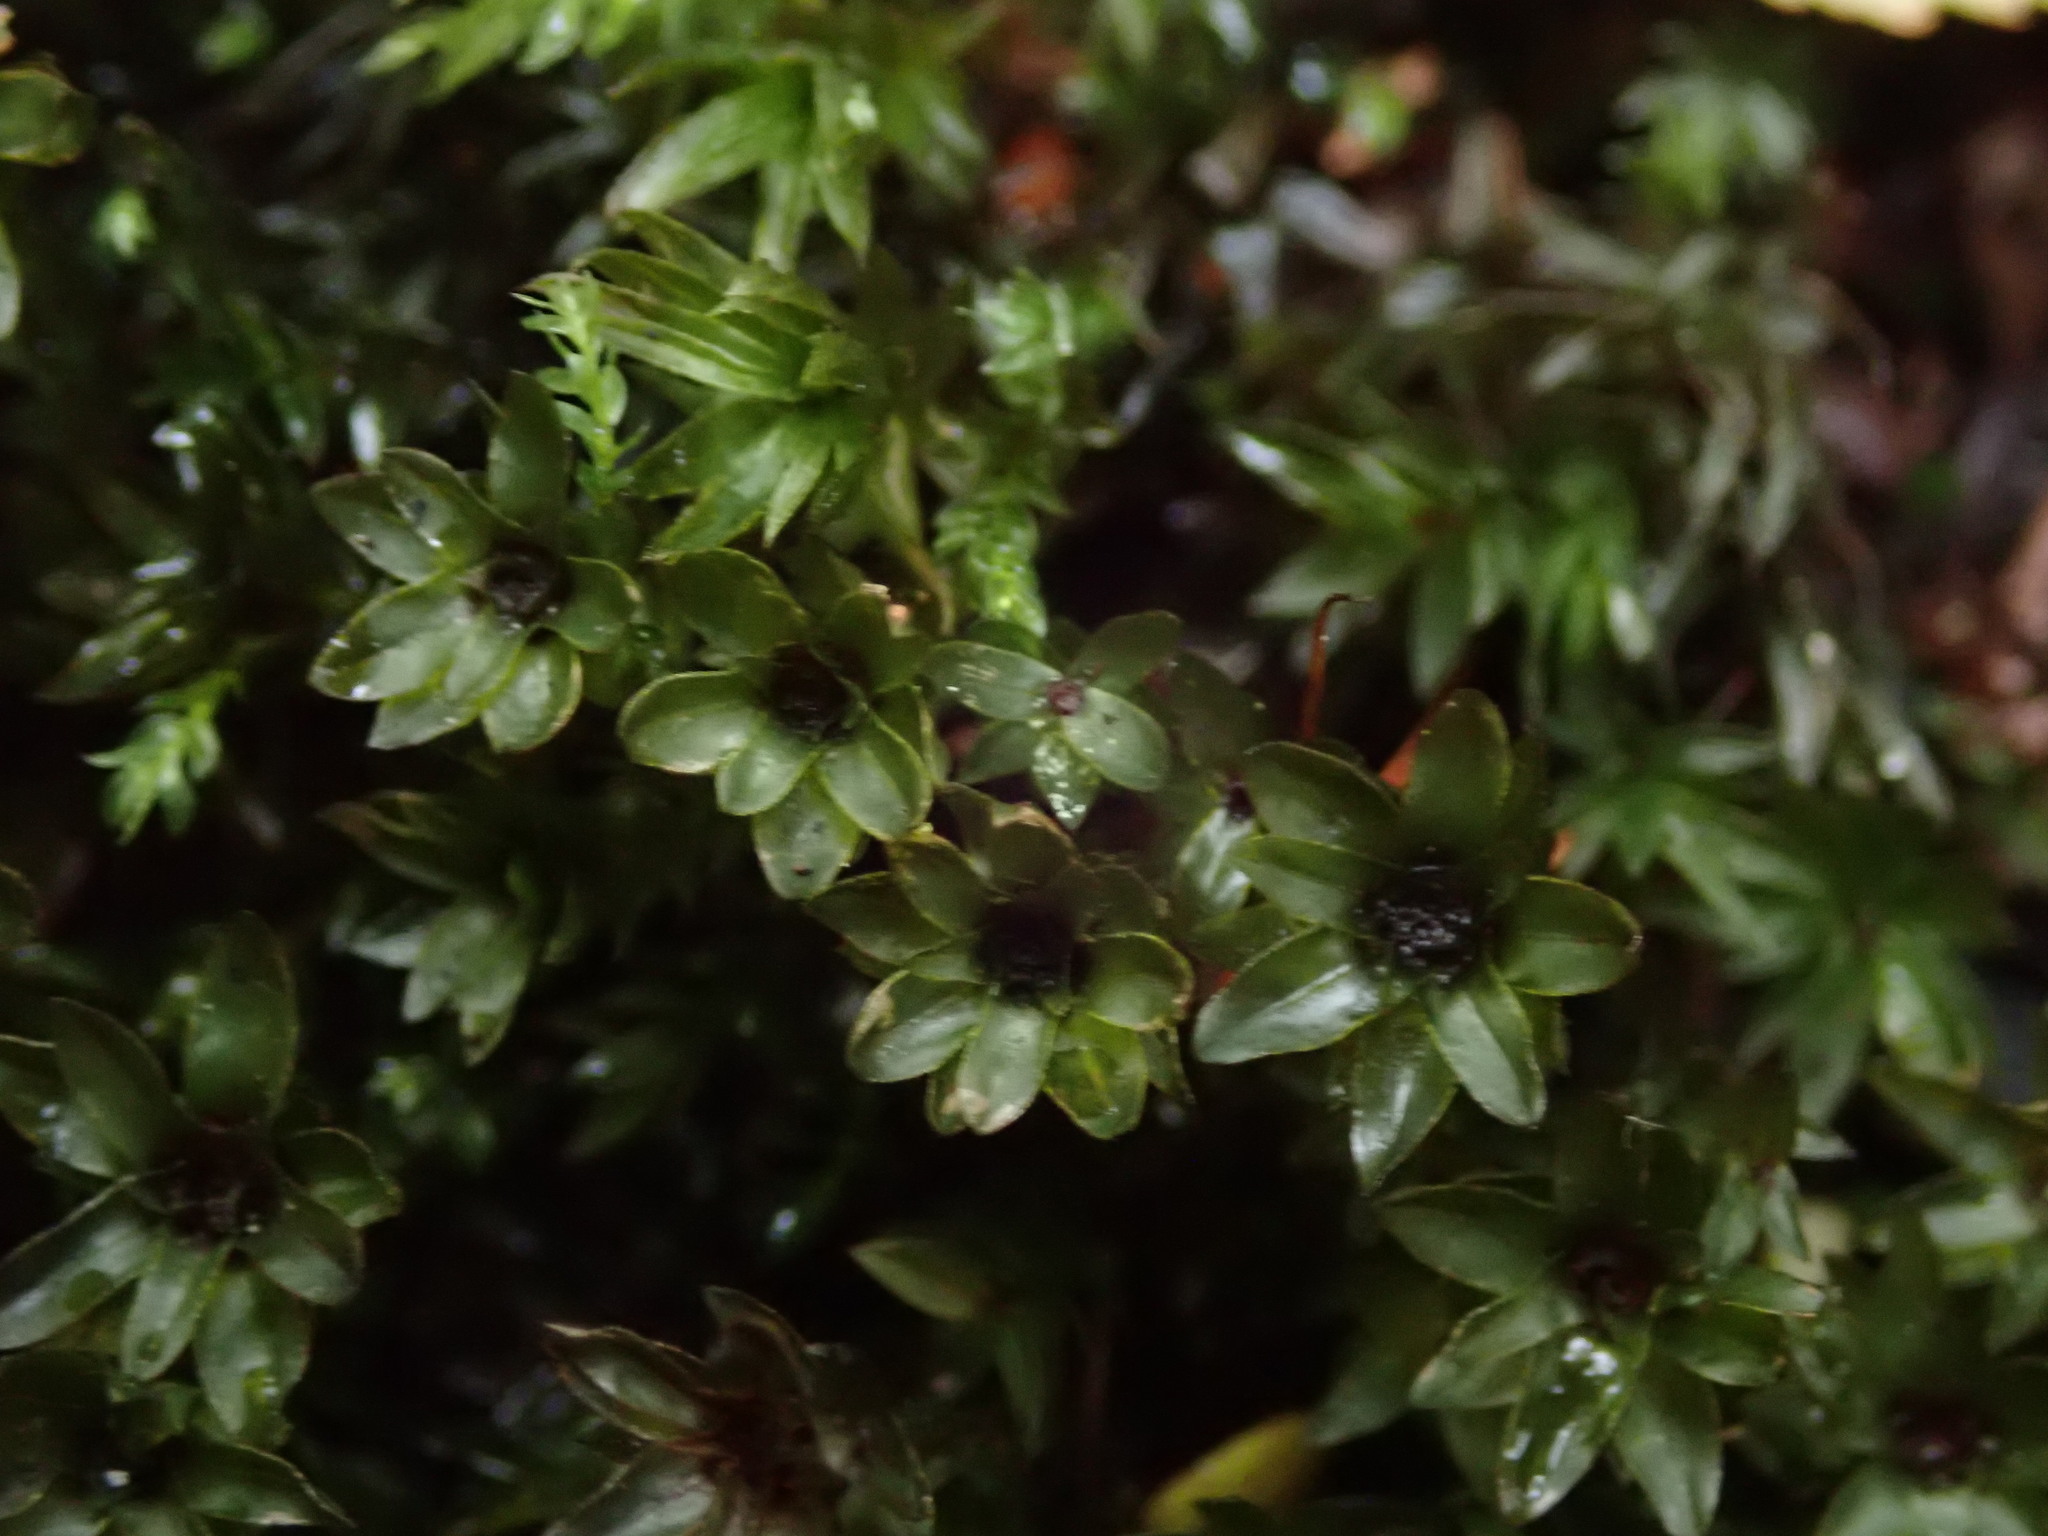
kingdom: Plantae
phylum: Bryophyta
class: Bryopsida
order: Bryales
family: Mniaceae
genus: Mnium
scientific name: Mnium hornum
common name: Swan's-neck leafy moss
